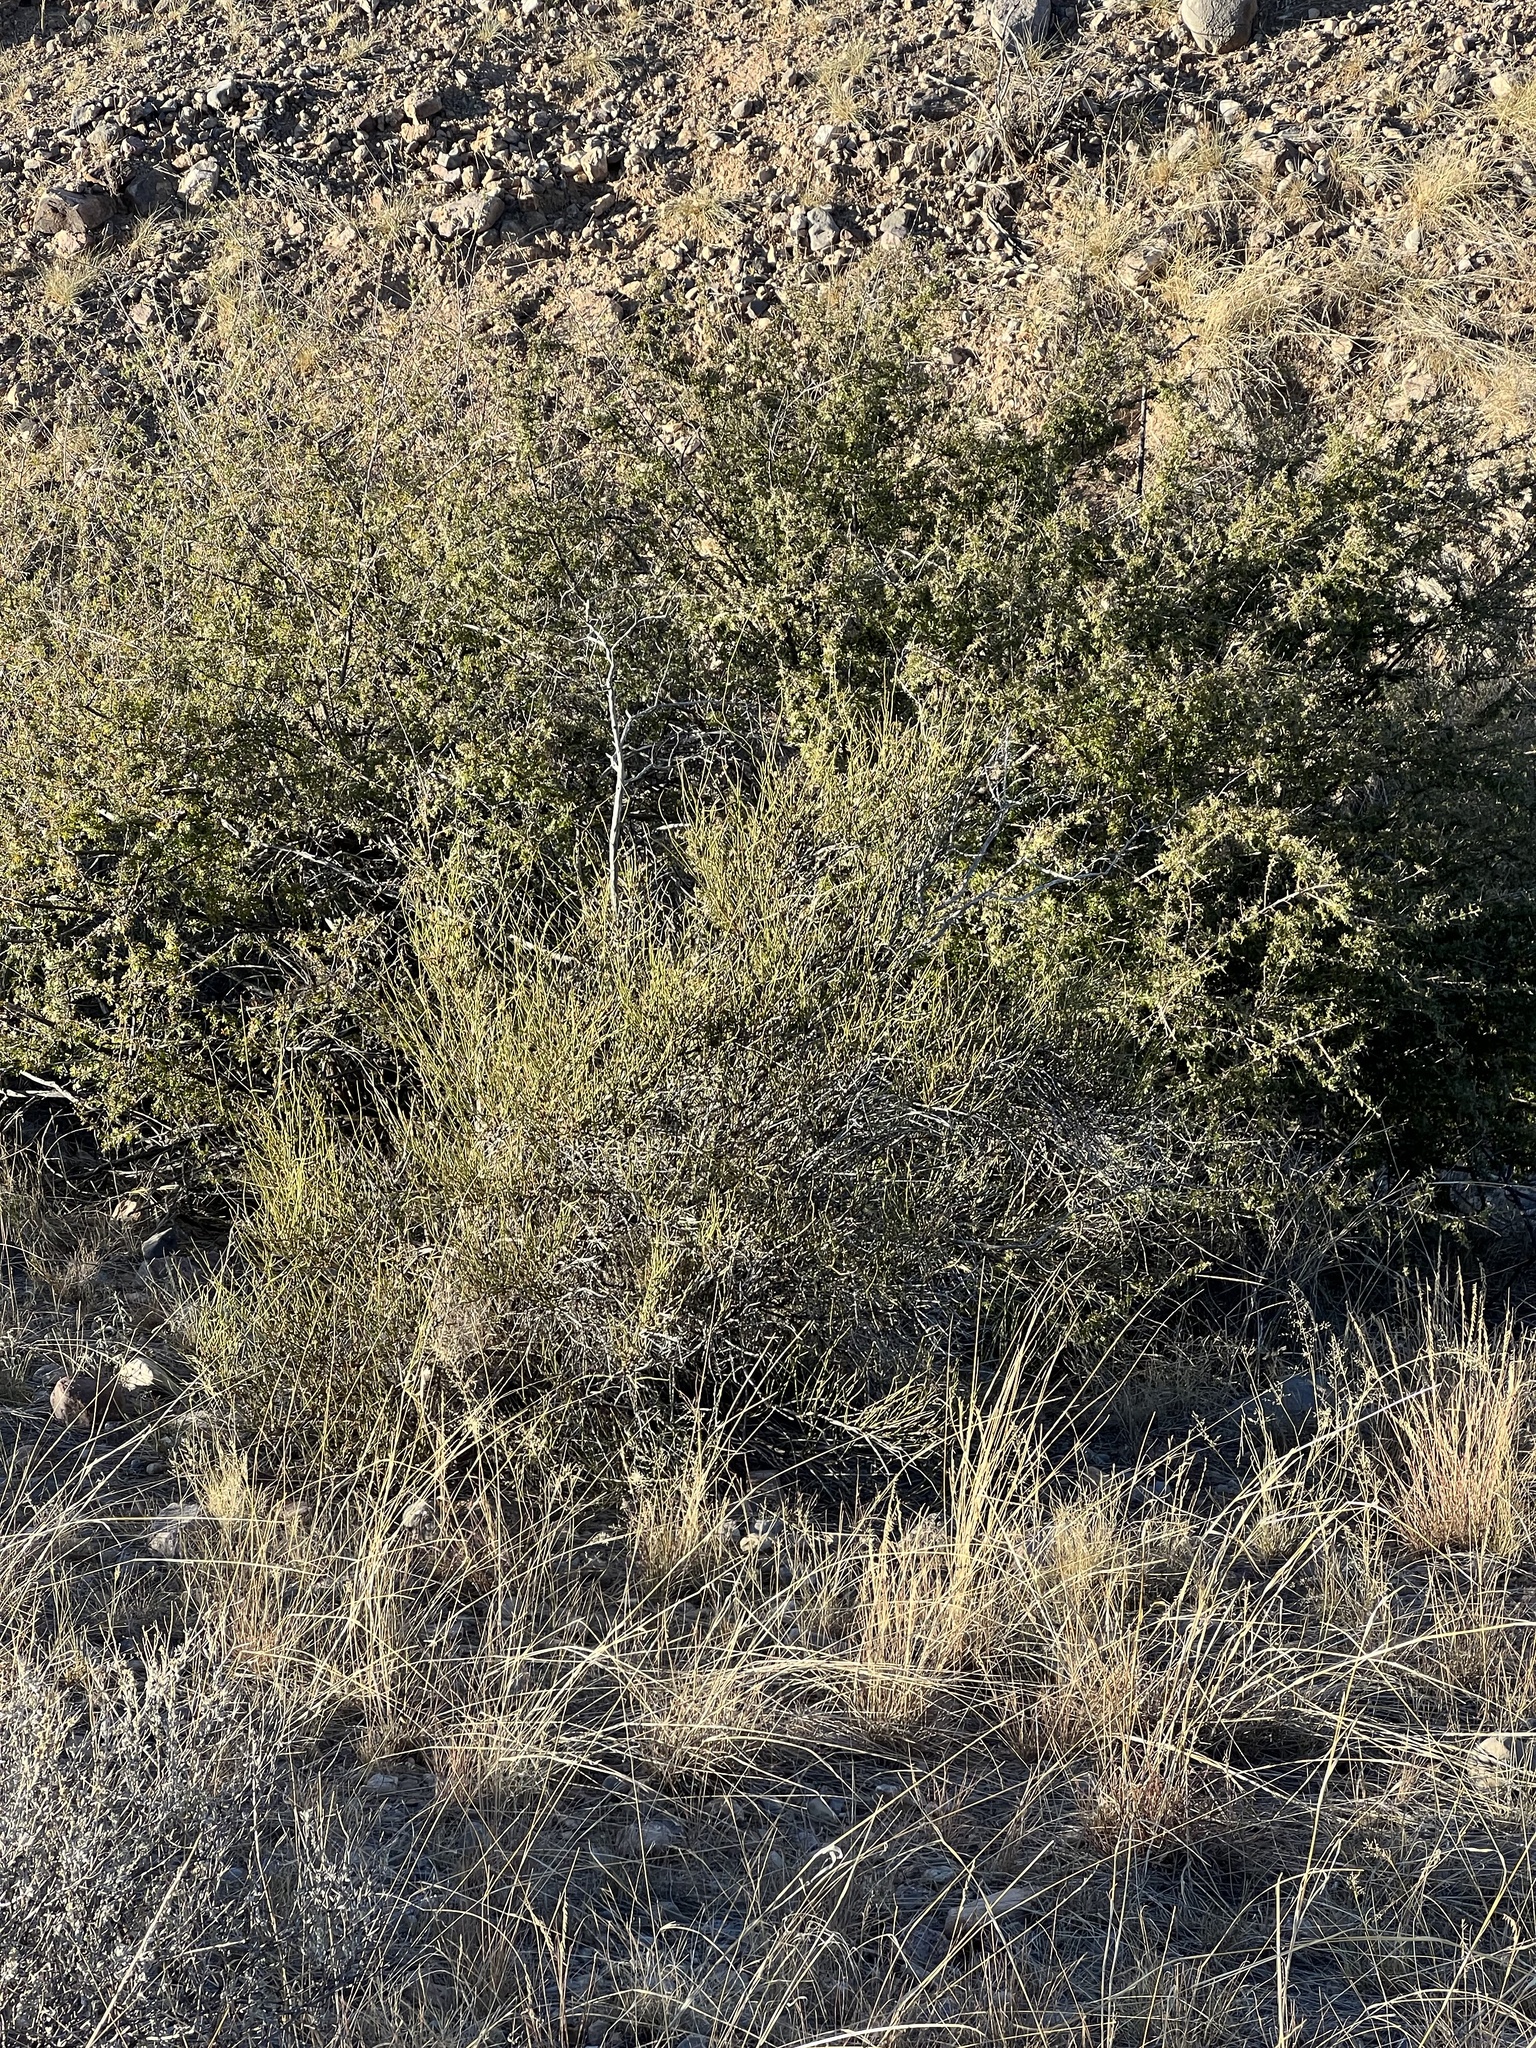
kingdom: Plantae
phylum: Tracheophyta
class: Gnetopsida
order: Ephedrales
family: Ephedraceae
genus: Ephedra
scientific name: Ephedra trifurca
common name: Mexican-tea
